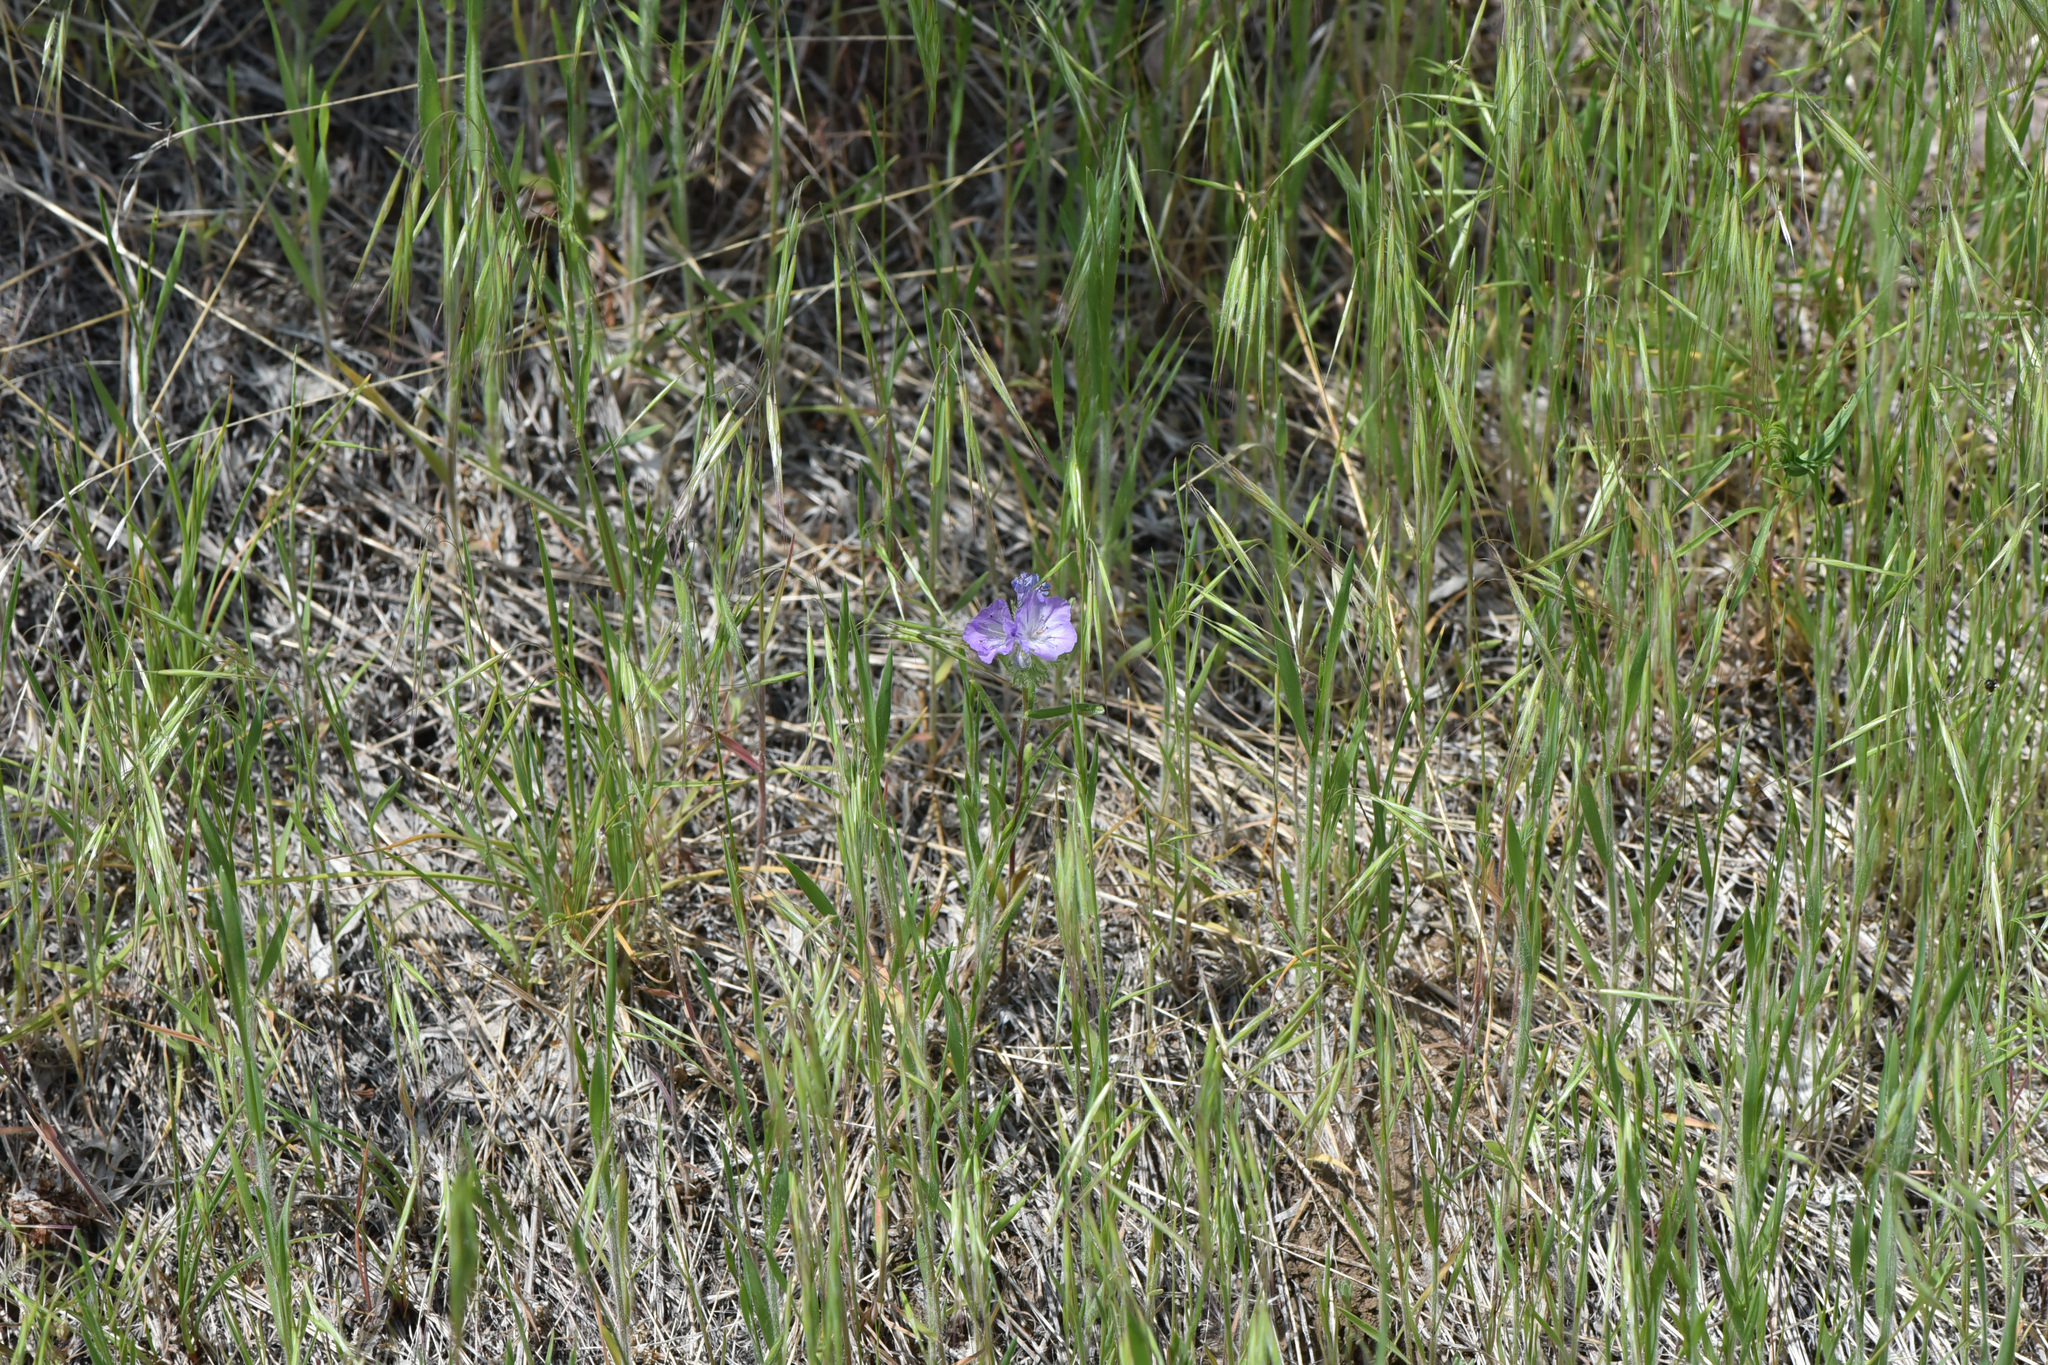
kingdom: Plantae
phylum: Tracheophyta
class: Magnoliopsida
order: Boraginales
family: Hydrophyllaceae
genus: Phacelia
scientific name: Phacelia linearis
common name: Linear-leaved phacelia
